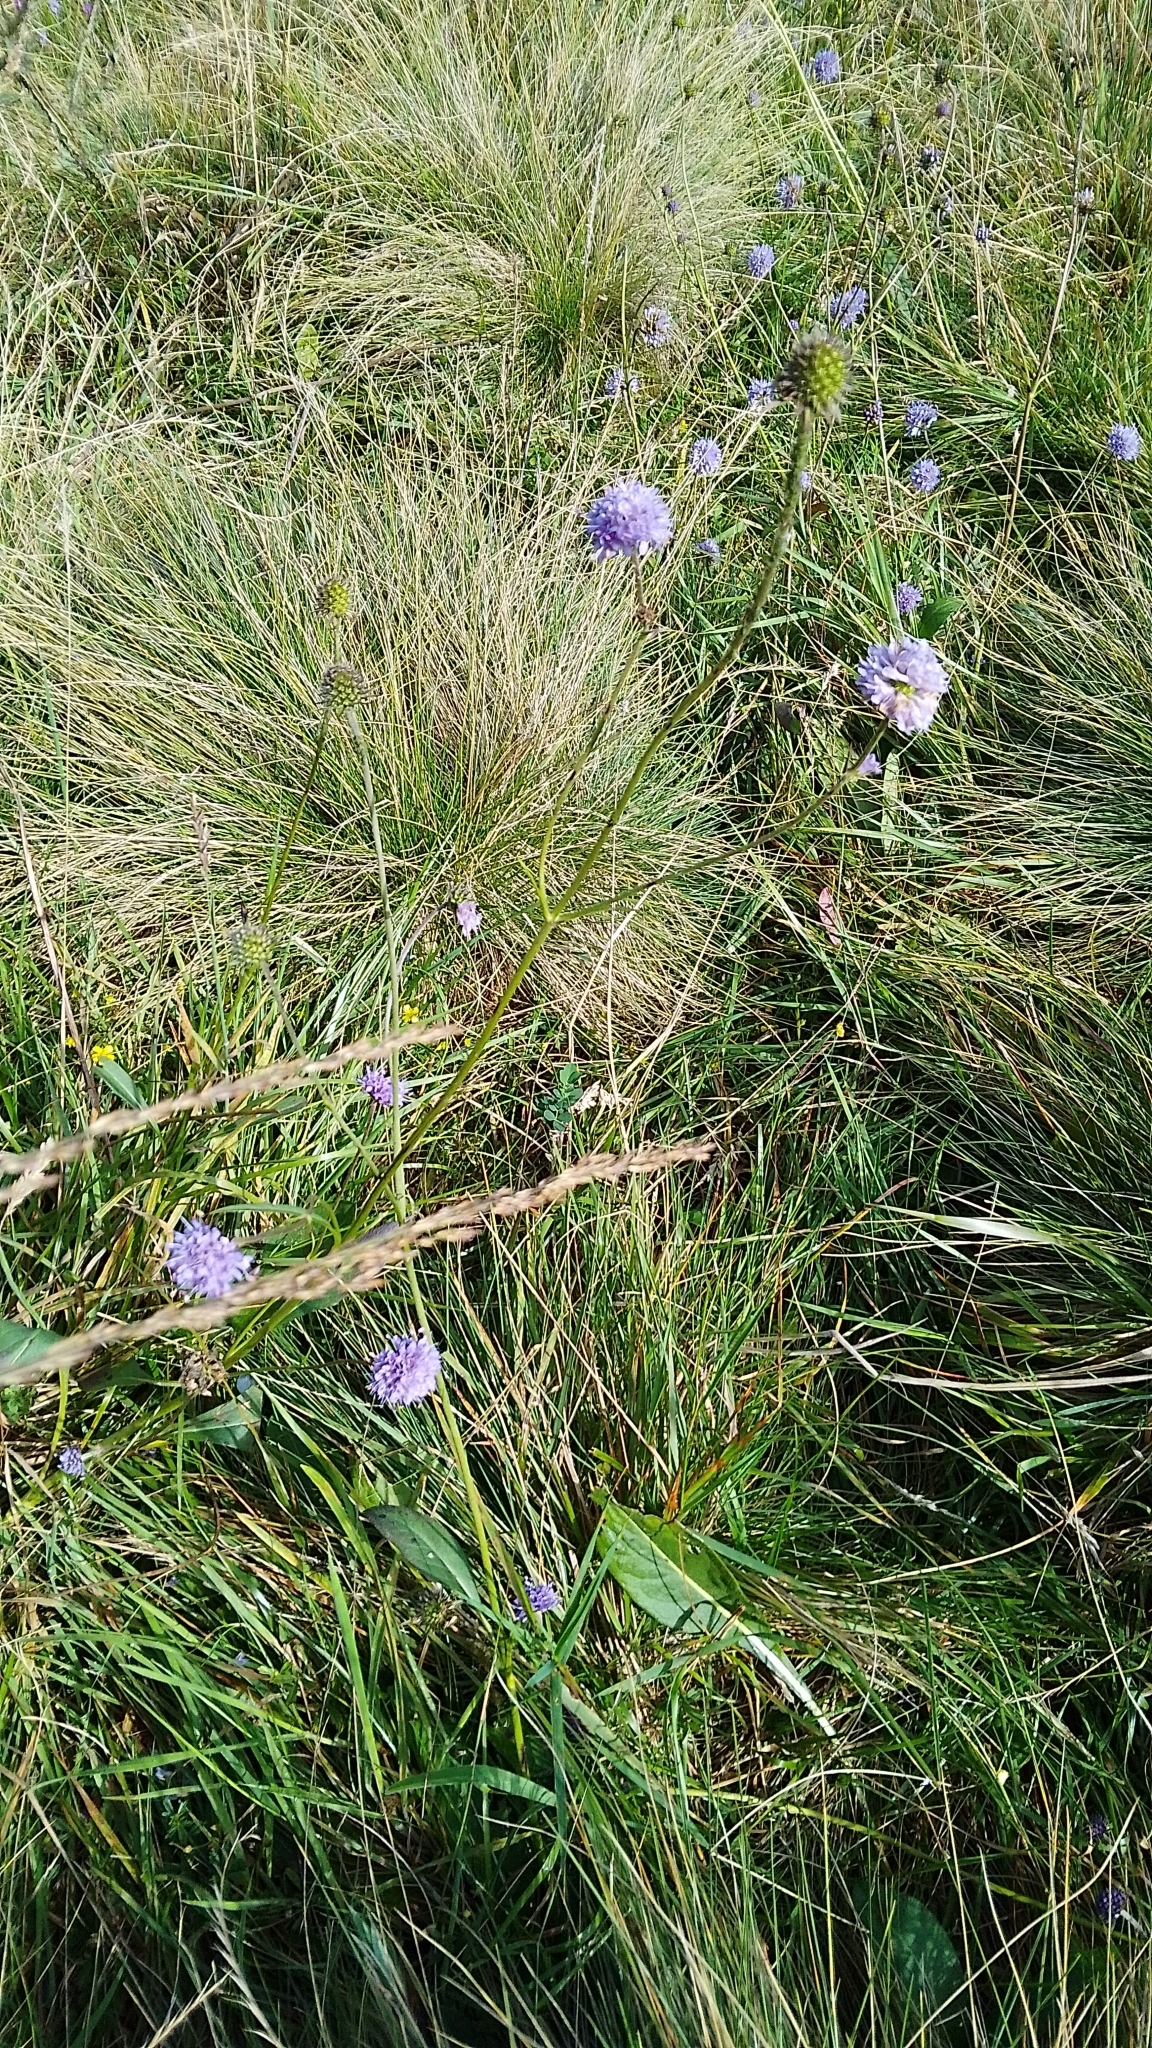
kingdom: Plantae
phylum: Tracheophyta
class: Magnoliopsida
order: Dipsacales
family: Caprifoliaceae
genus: Succisa
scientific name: Succisa pratensis
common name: Devil's-bit
